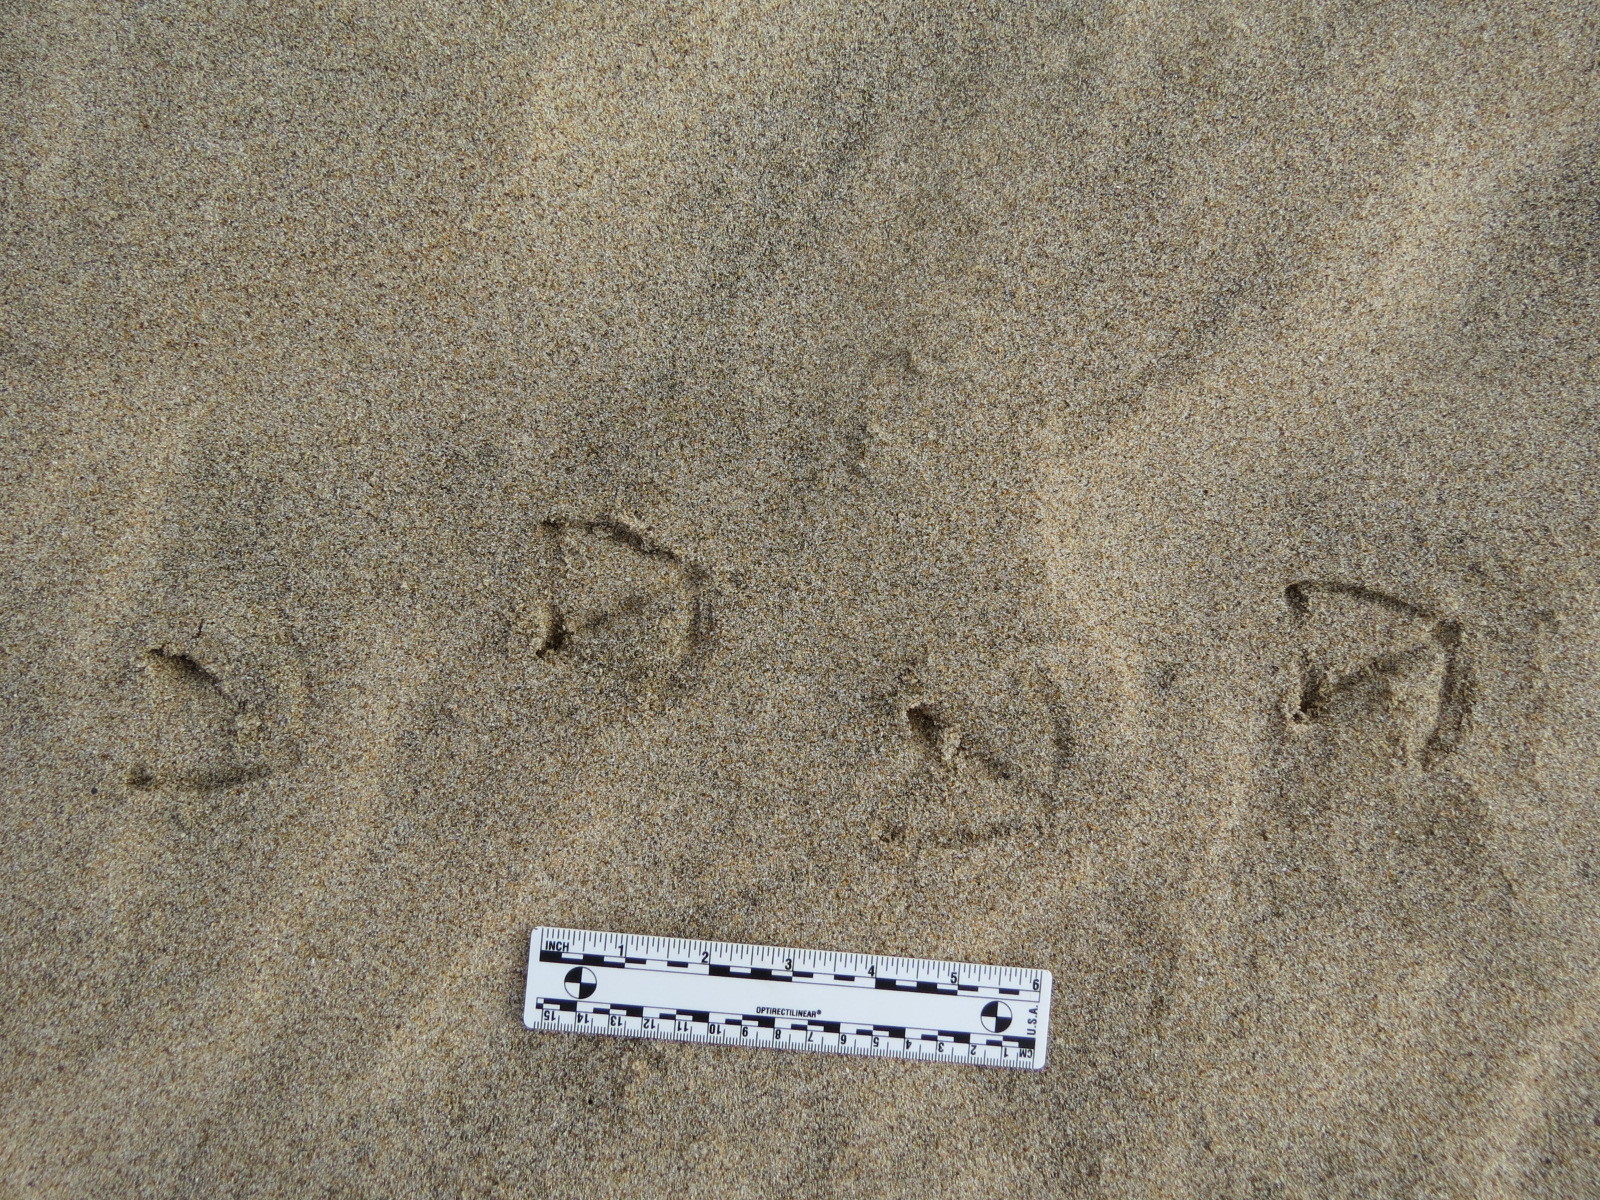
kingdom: Animalia
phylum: Chordata
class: Aves
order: Anseriformes
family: Anatidae
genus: Anas
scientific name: Anas platyrhynchos
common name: Mallard
